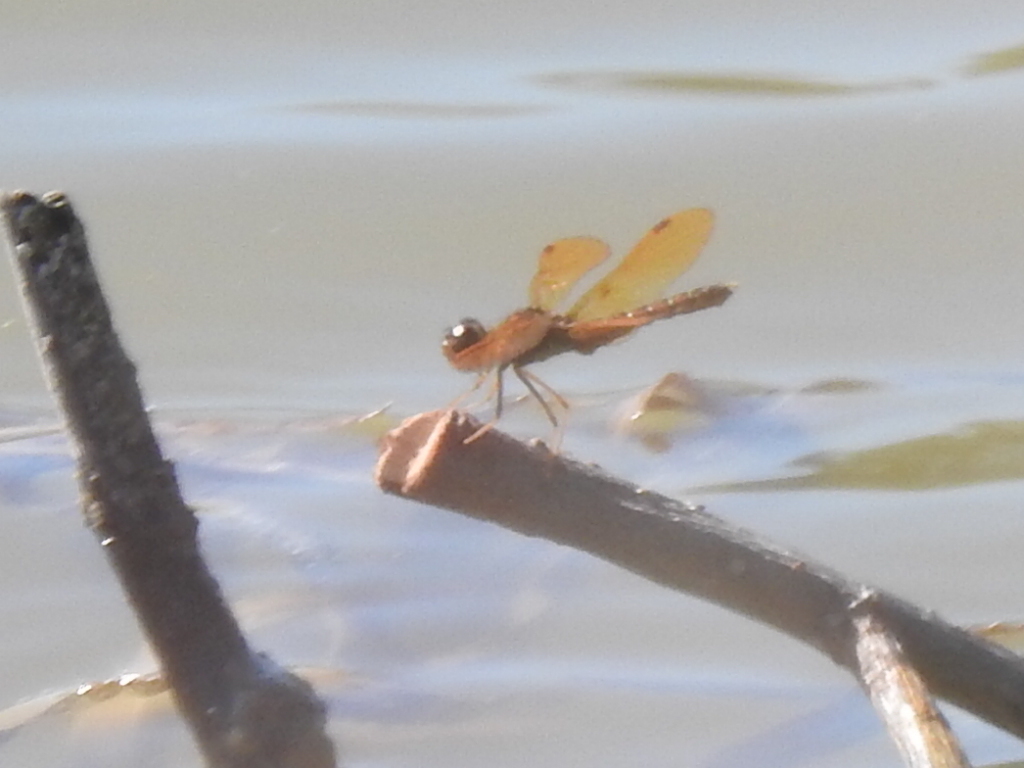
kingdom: Animalia
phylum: Arthropoda
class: Insecta
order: Odonata
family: Libellulidae
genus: Perithemis
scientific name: Perithemis tenera
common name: Eastern amberwing
